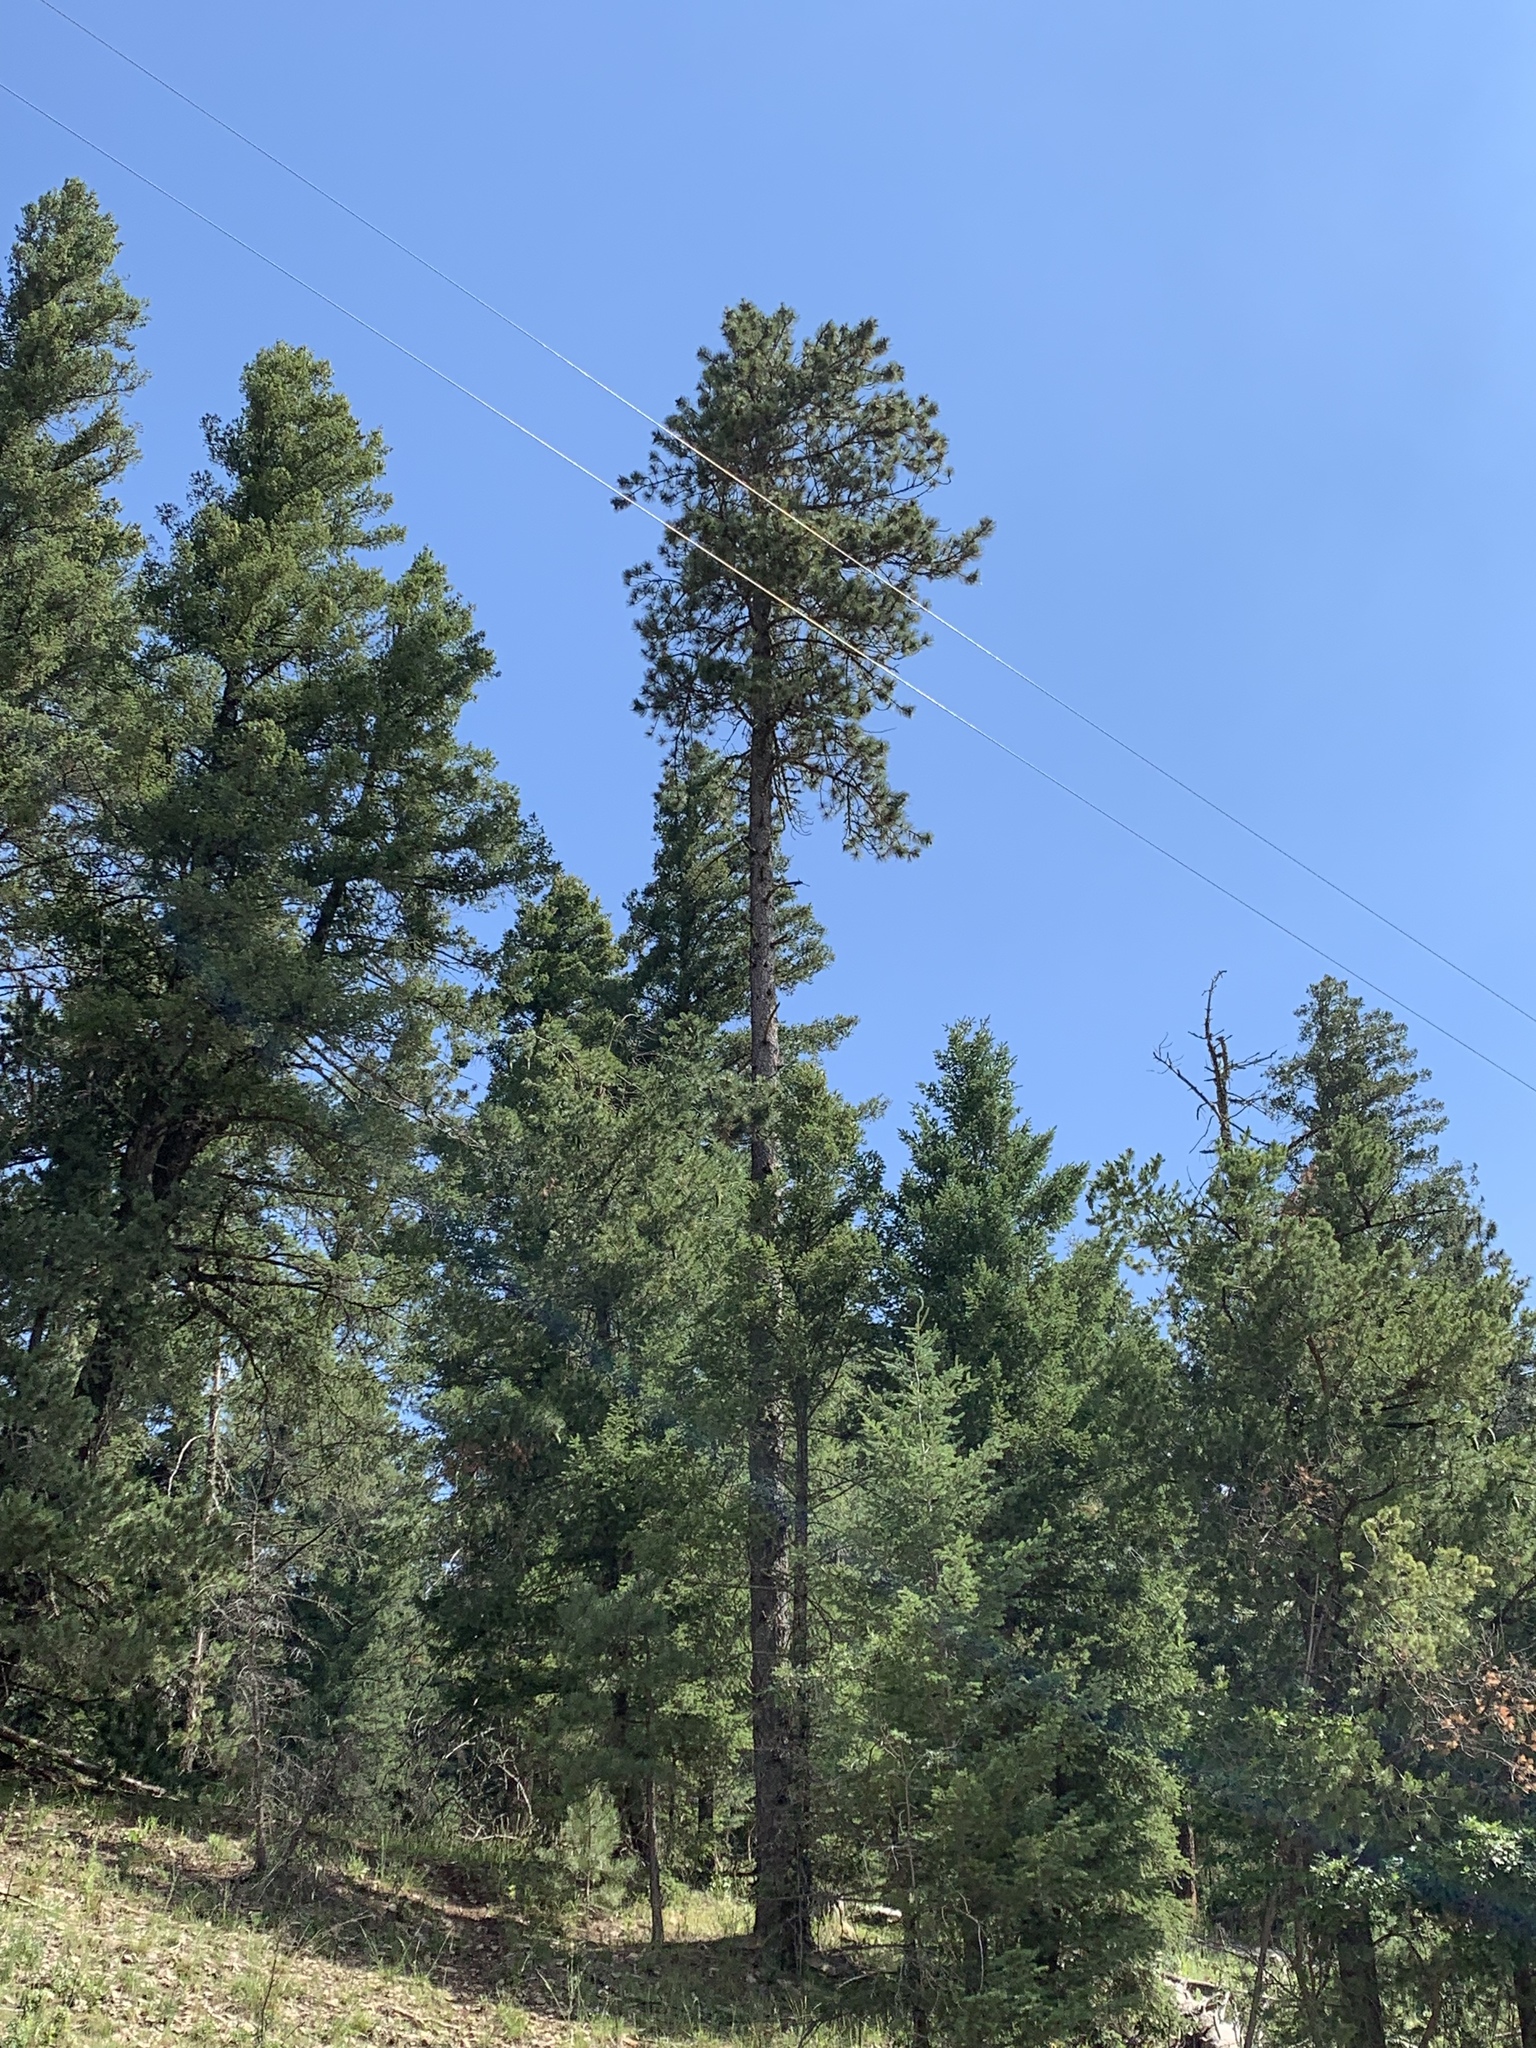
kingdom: Plantae
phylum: Tracheophyta
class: Pinopsida
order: Pinales
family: Pinaceae
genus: Pinus
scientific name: Pinus ponderosa
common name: Western yellow-pine
